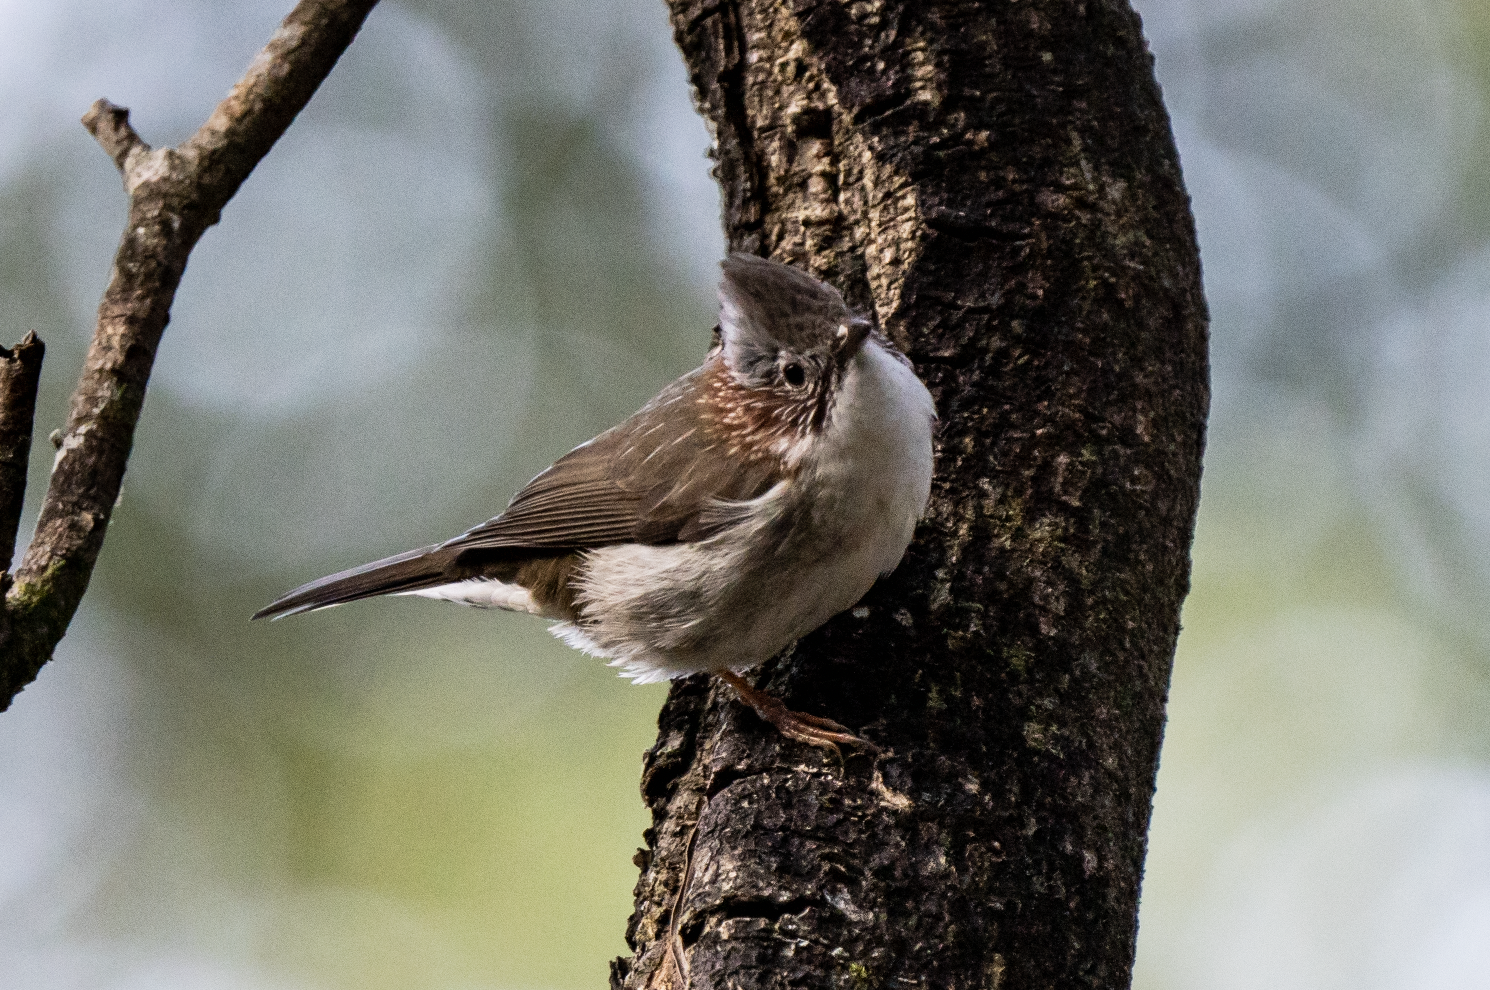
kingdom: Animalia
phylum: Chordata
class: Aves
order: Passeriformes
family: Zosteropidae
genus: Yuhina
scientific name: Yuhina torqueola
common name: Indochinese yuhina
